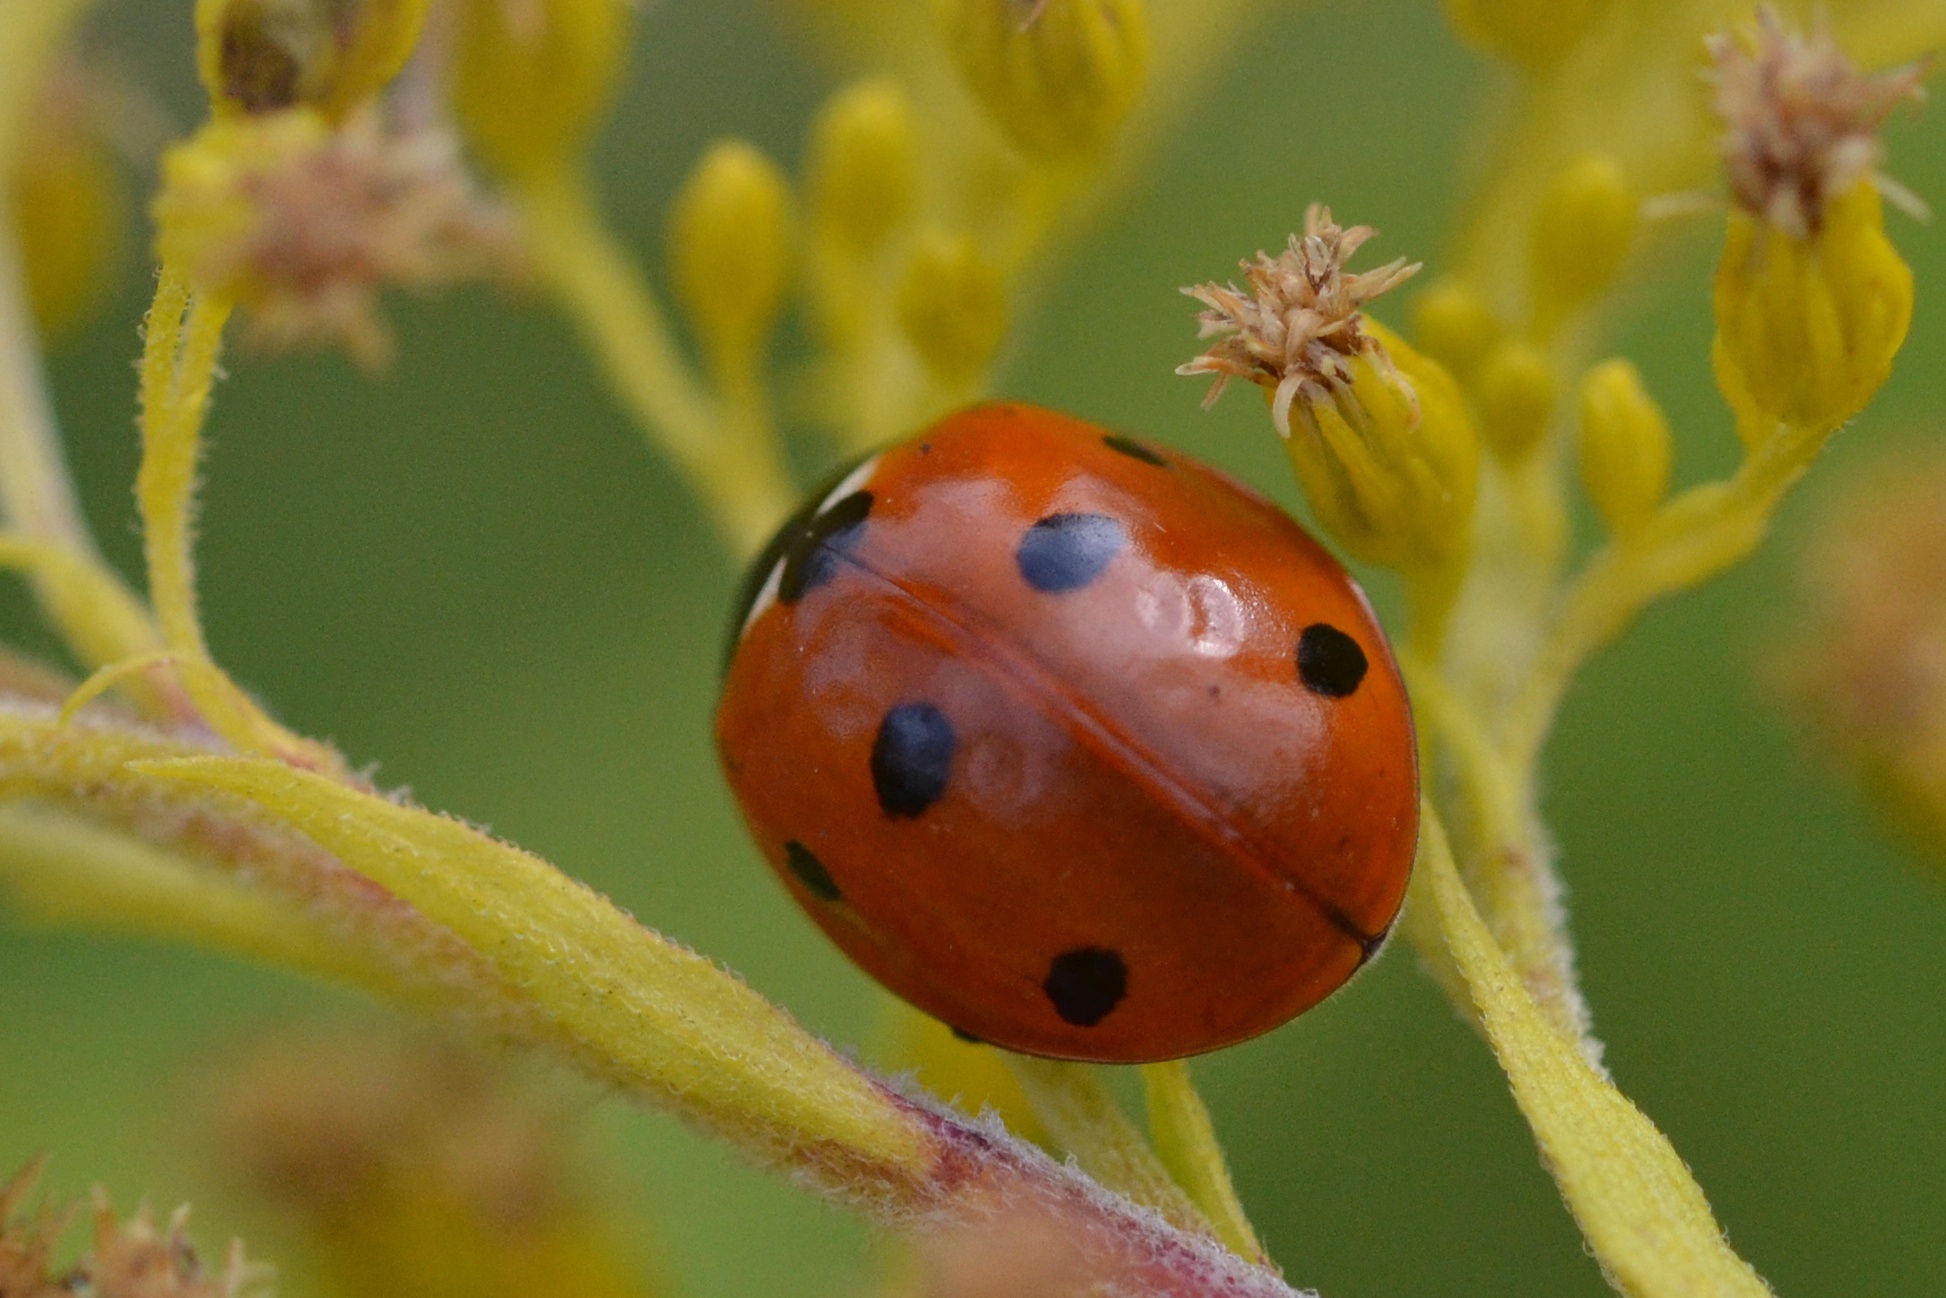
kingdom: Animalia
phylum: Arthropoda
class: Insecta
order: Coleoptera
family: Coccinellidae
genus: Coccinella
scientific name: Coccinella septempunctata
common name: Sevenspotted lady beetle
